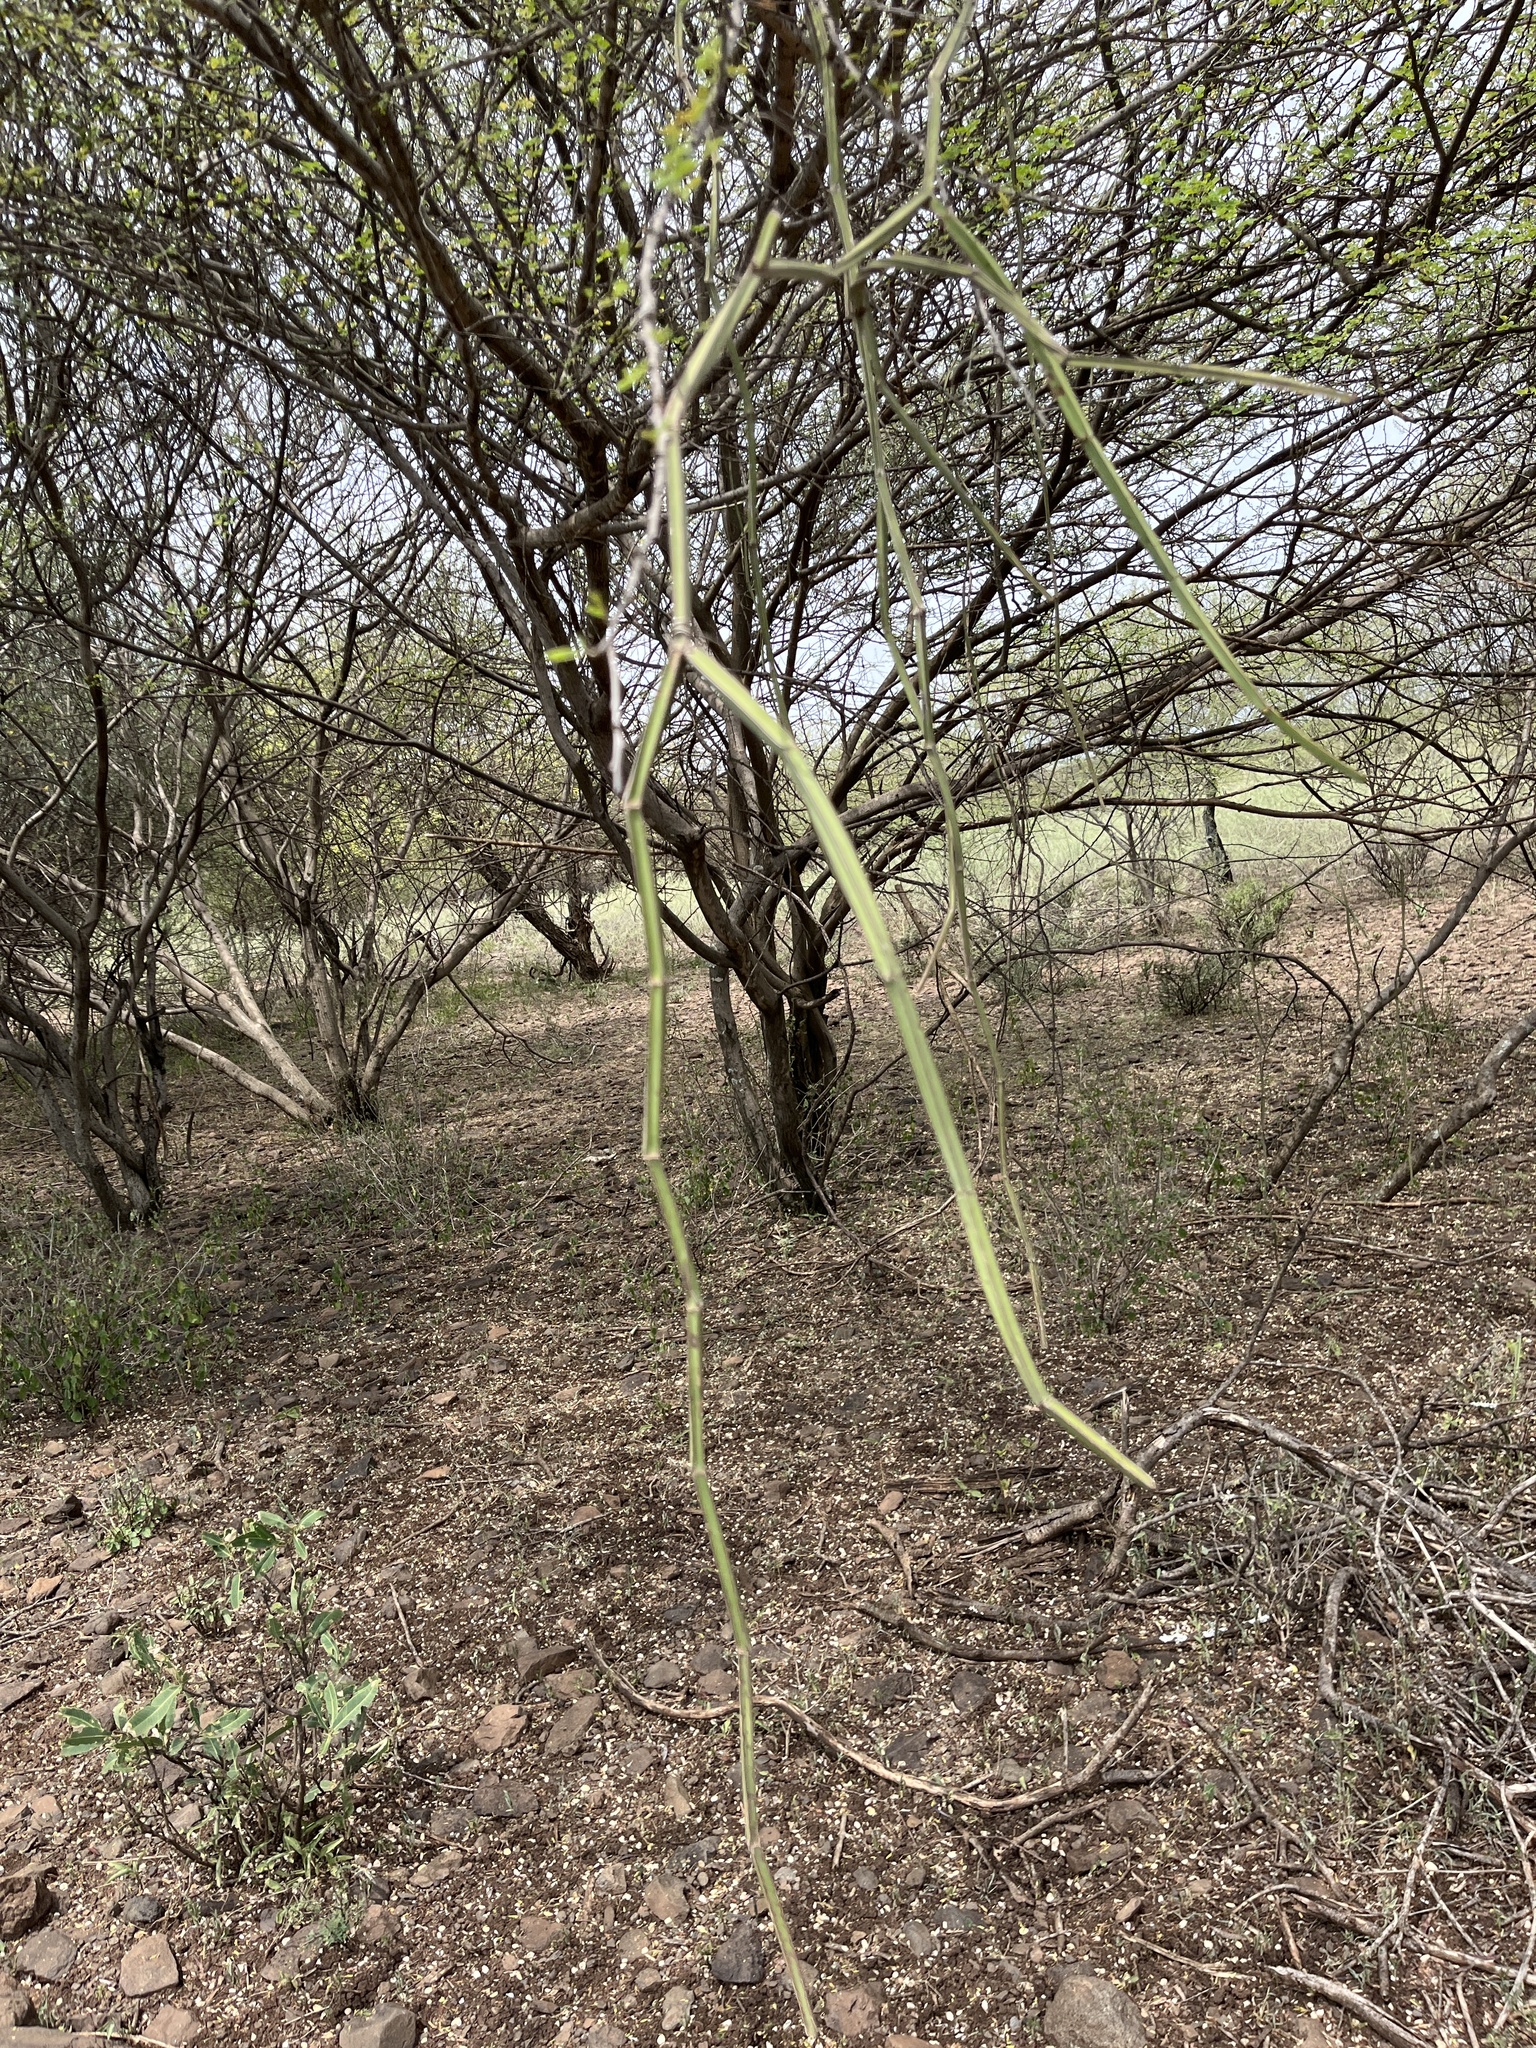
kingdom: Plantae
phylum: Tracheophyta
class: Magnoliopsida
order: Vitales
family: Vitaceae
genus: Cissus
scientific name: Cissus quadrangularis
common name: Veldt-grape
